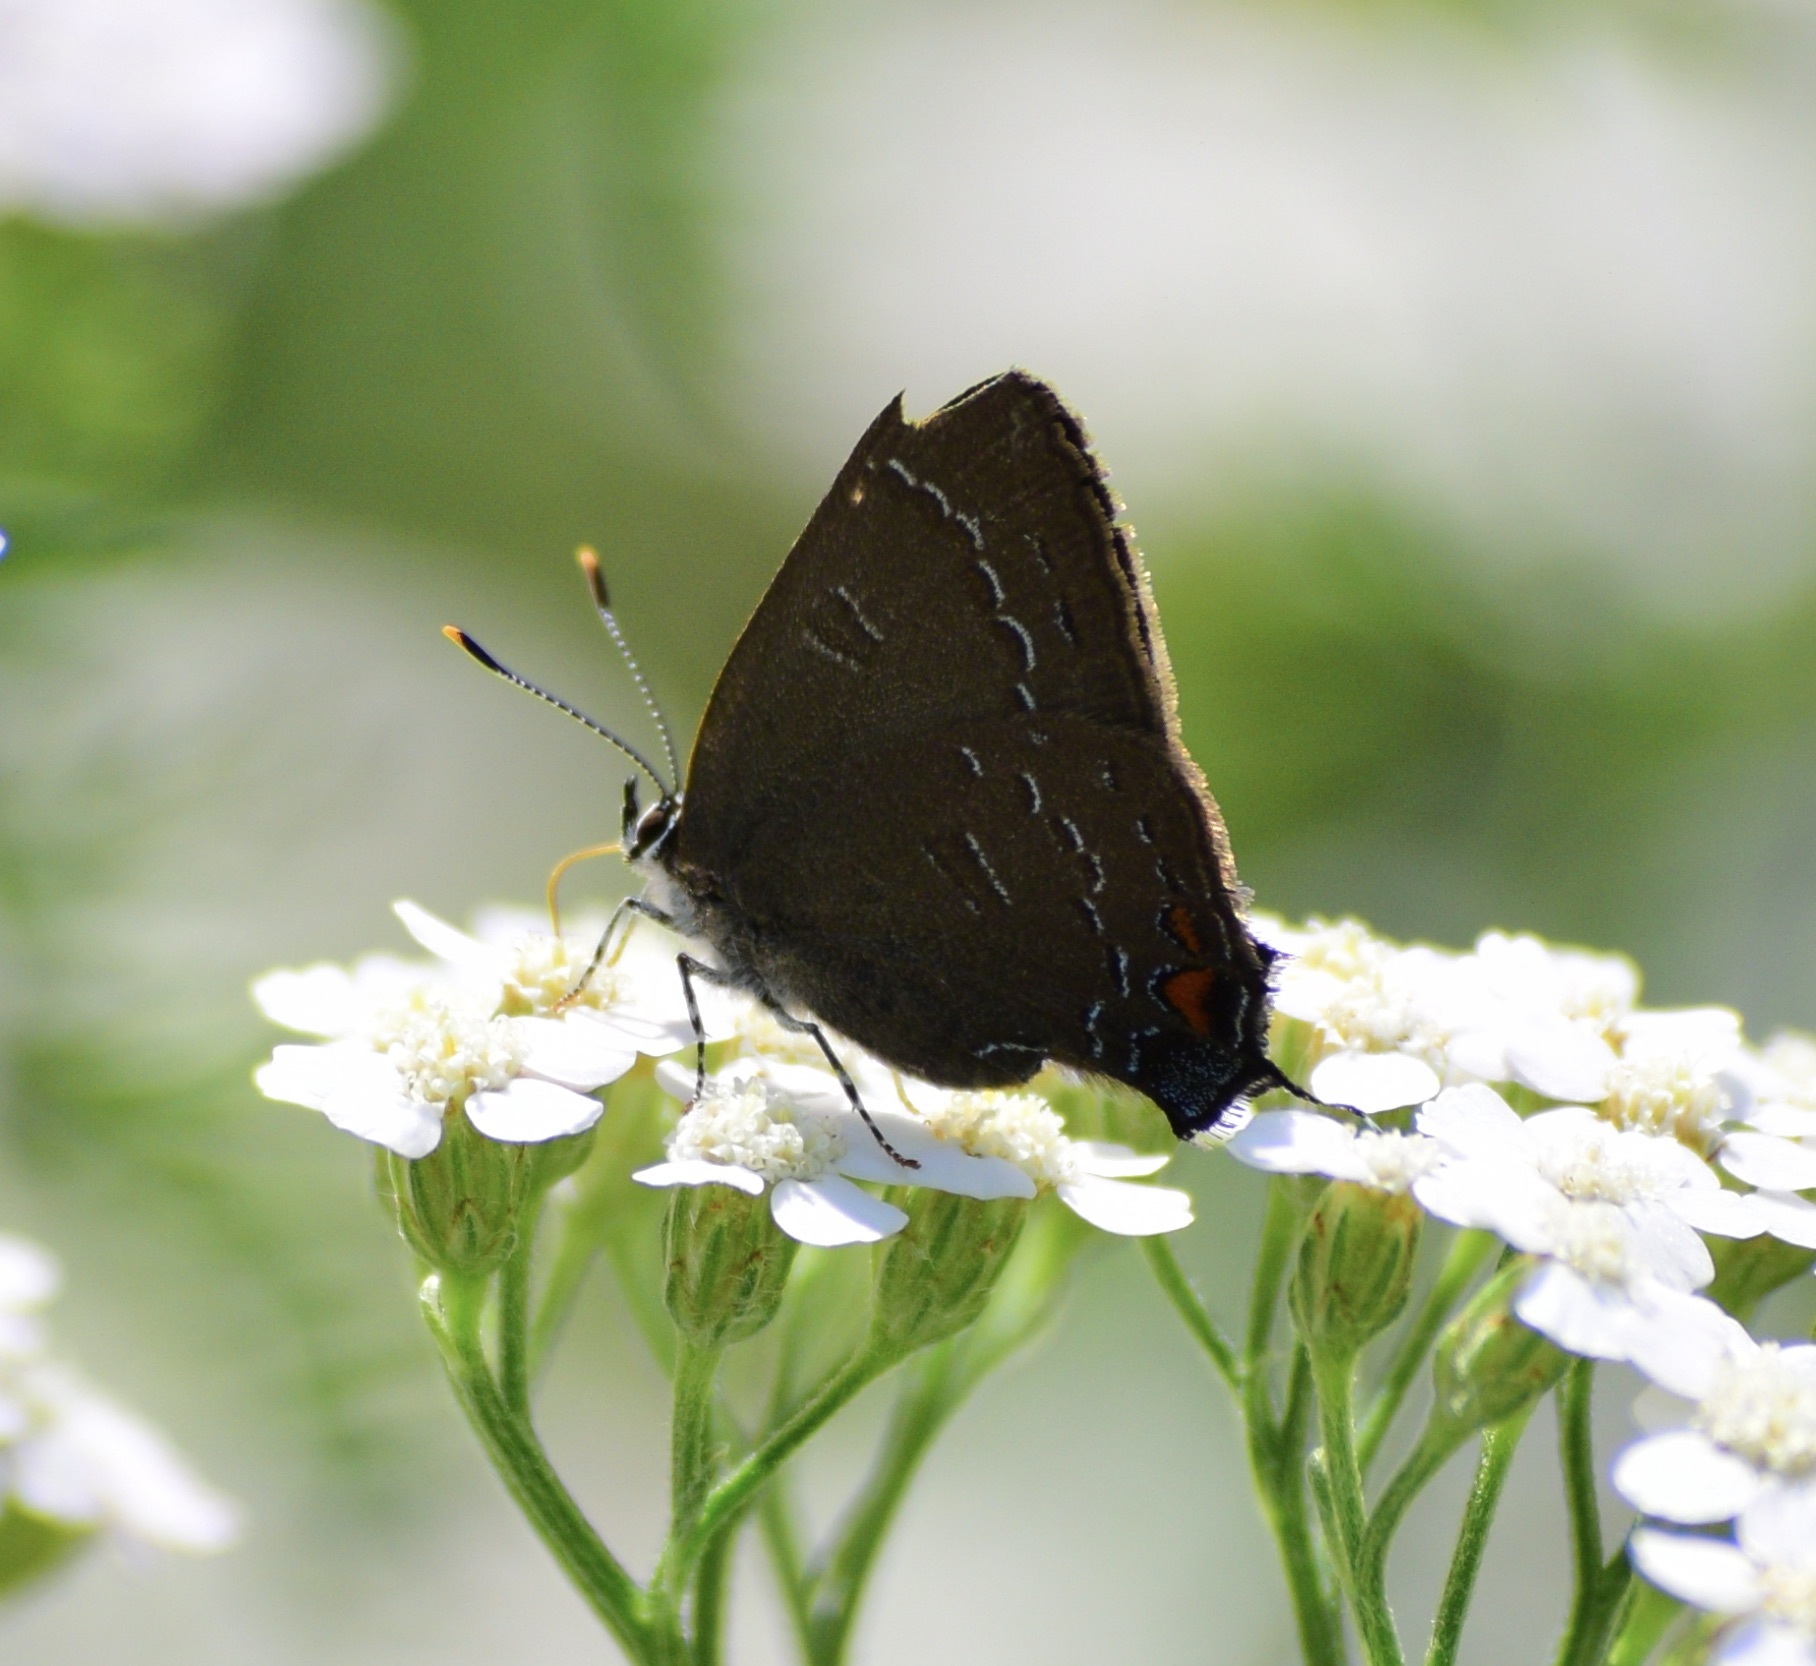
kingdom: Animalia
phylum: Arthropoda
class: Insecta
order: Lepidoptera
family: Lycaenidae
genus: Satyrium
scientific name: Satyrium calanus
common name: Banded hairstreak
